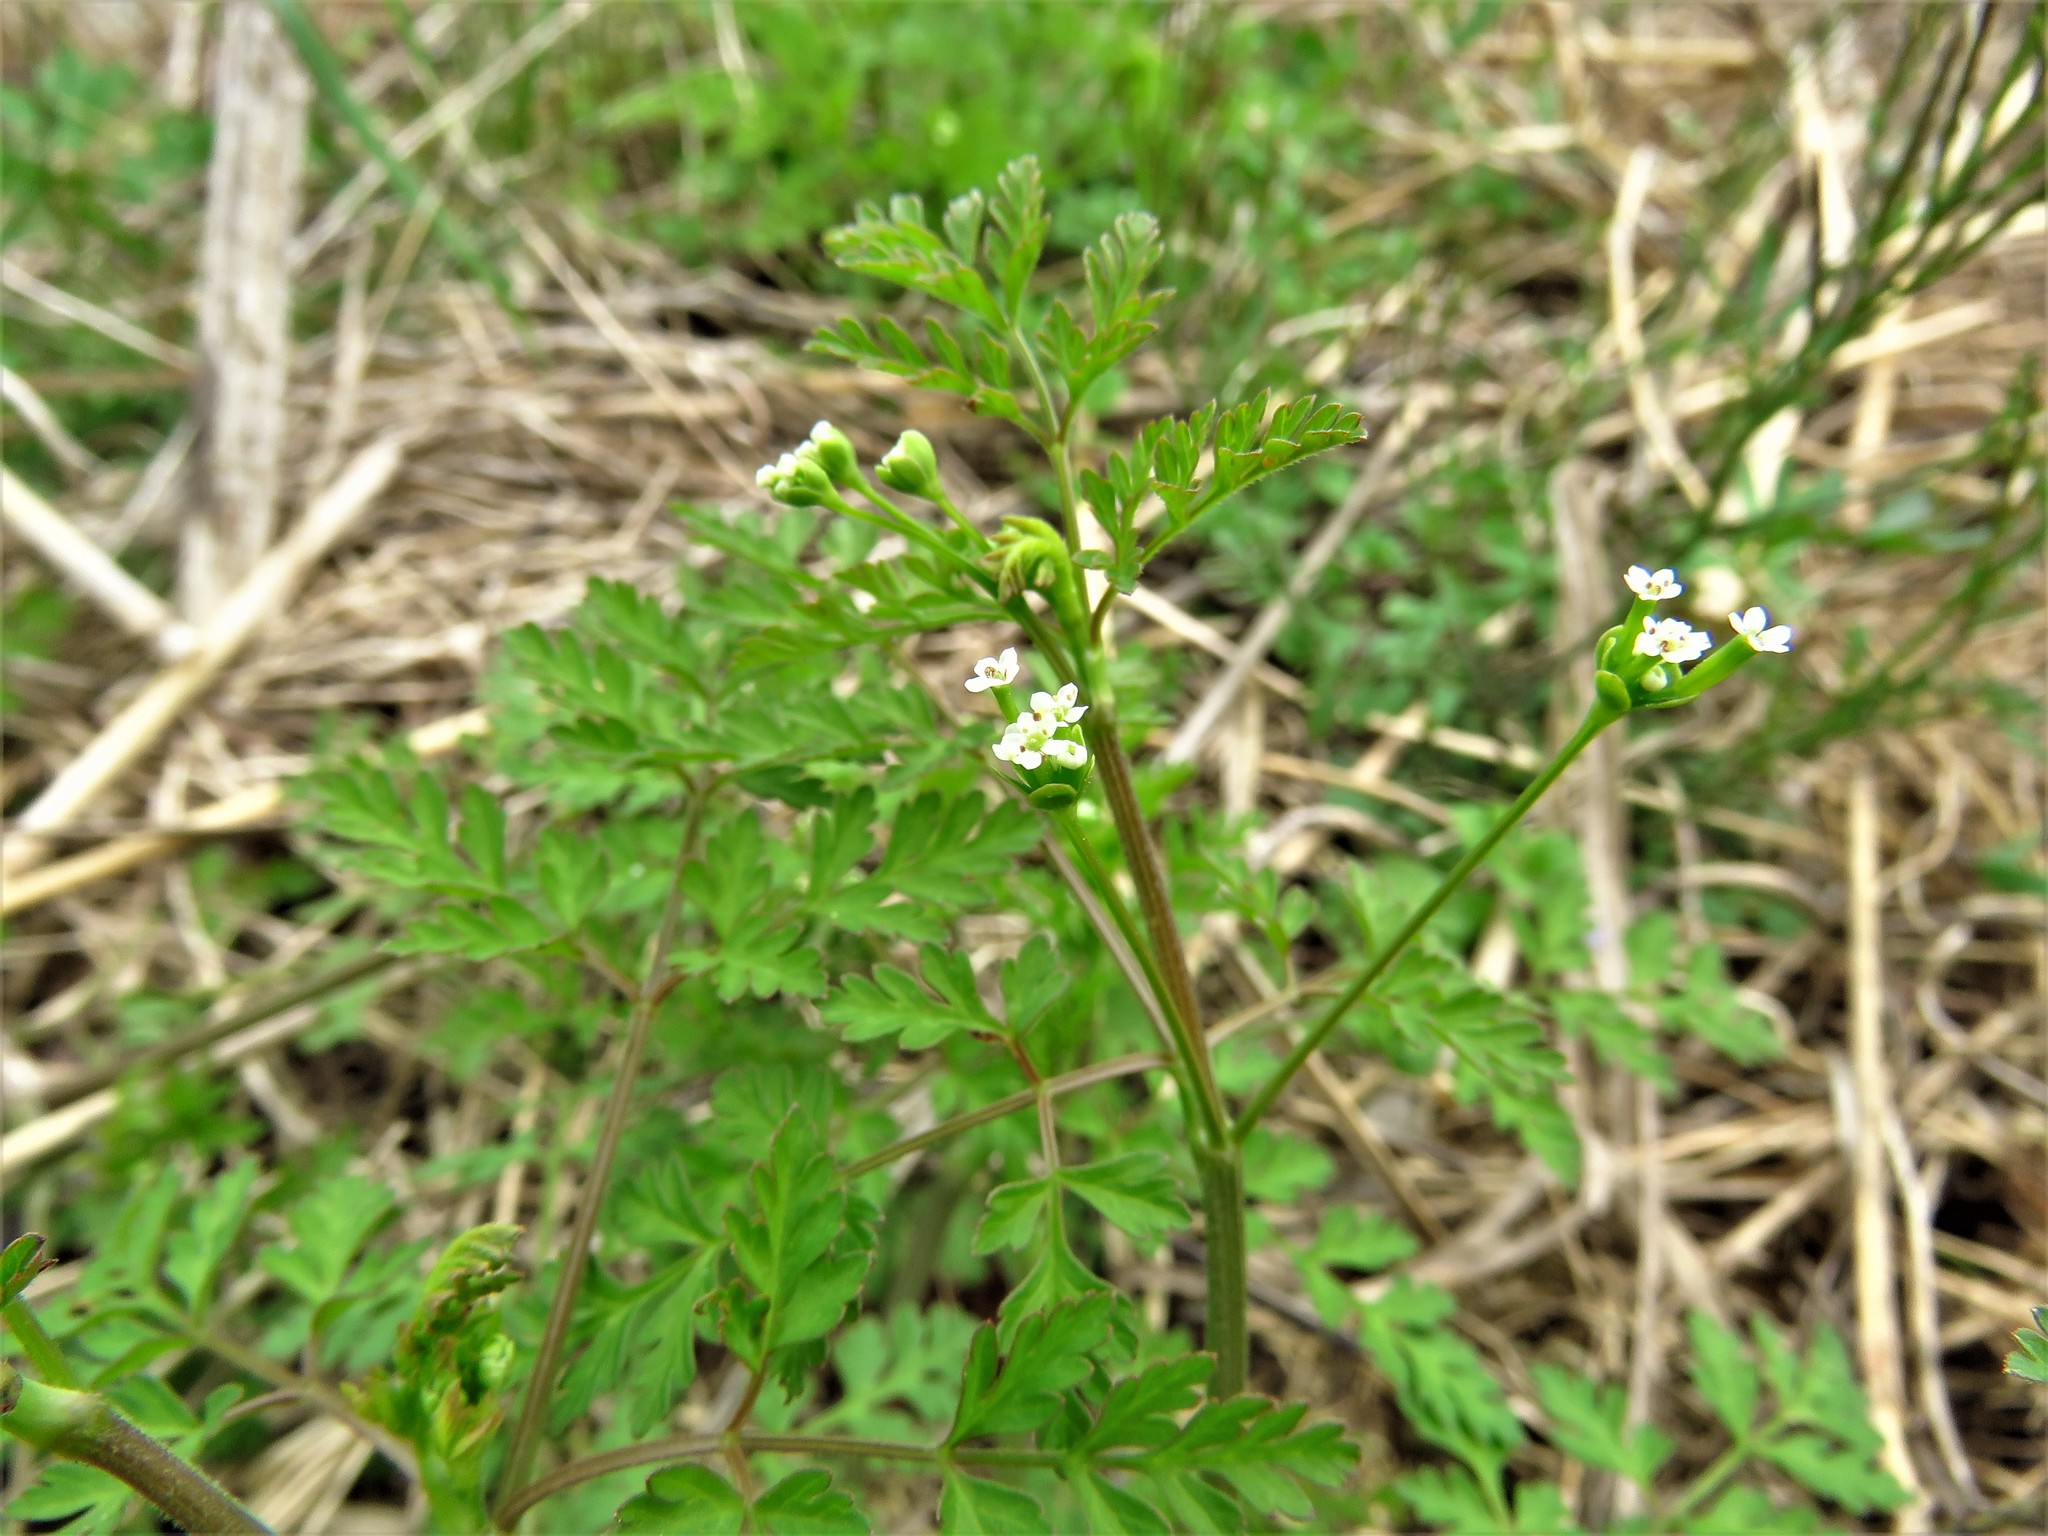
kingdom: Plantae
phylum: Tracheophyta
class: Magnoliopsida
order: Apiales
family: Apiaceae
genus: Chaerophyllum
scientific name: Chaerophyllum tainturieri
